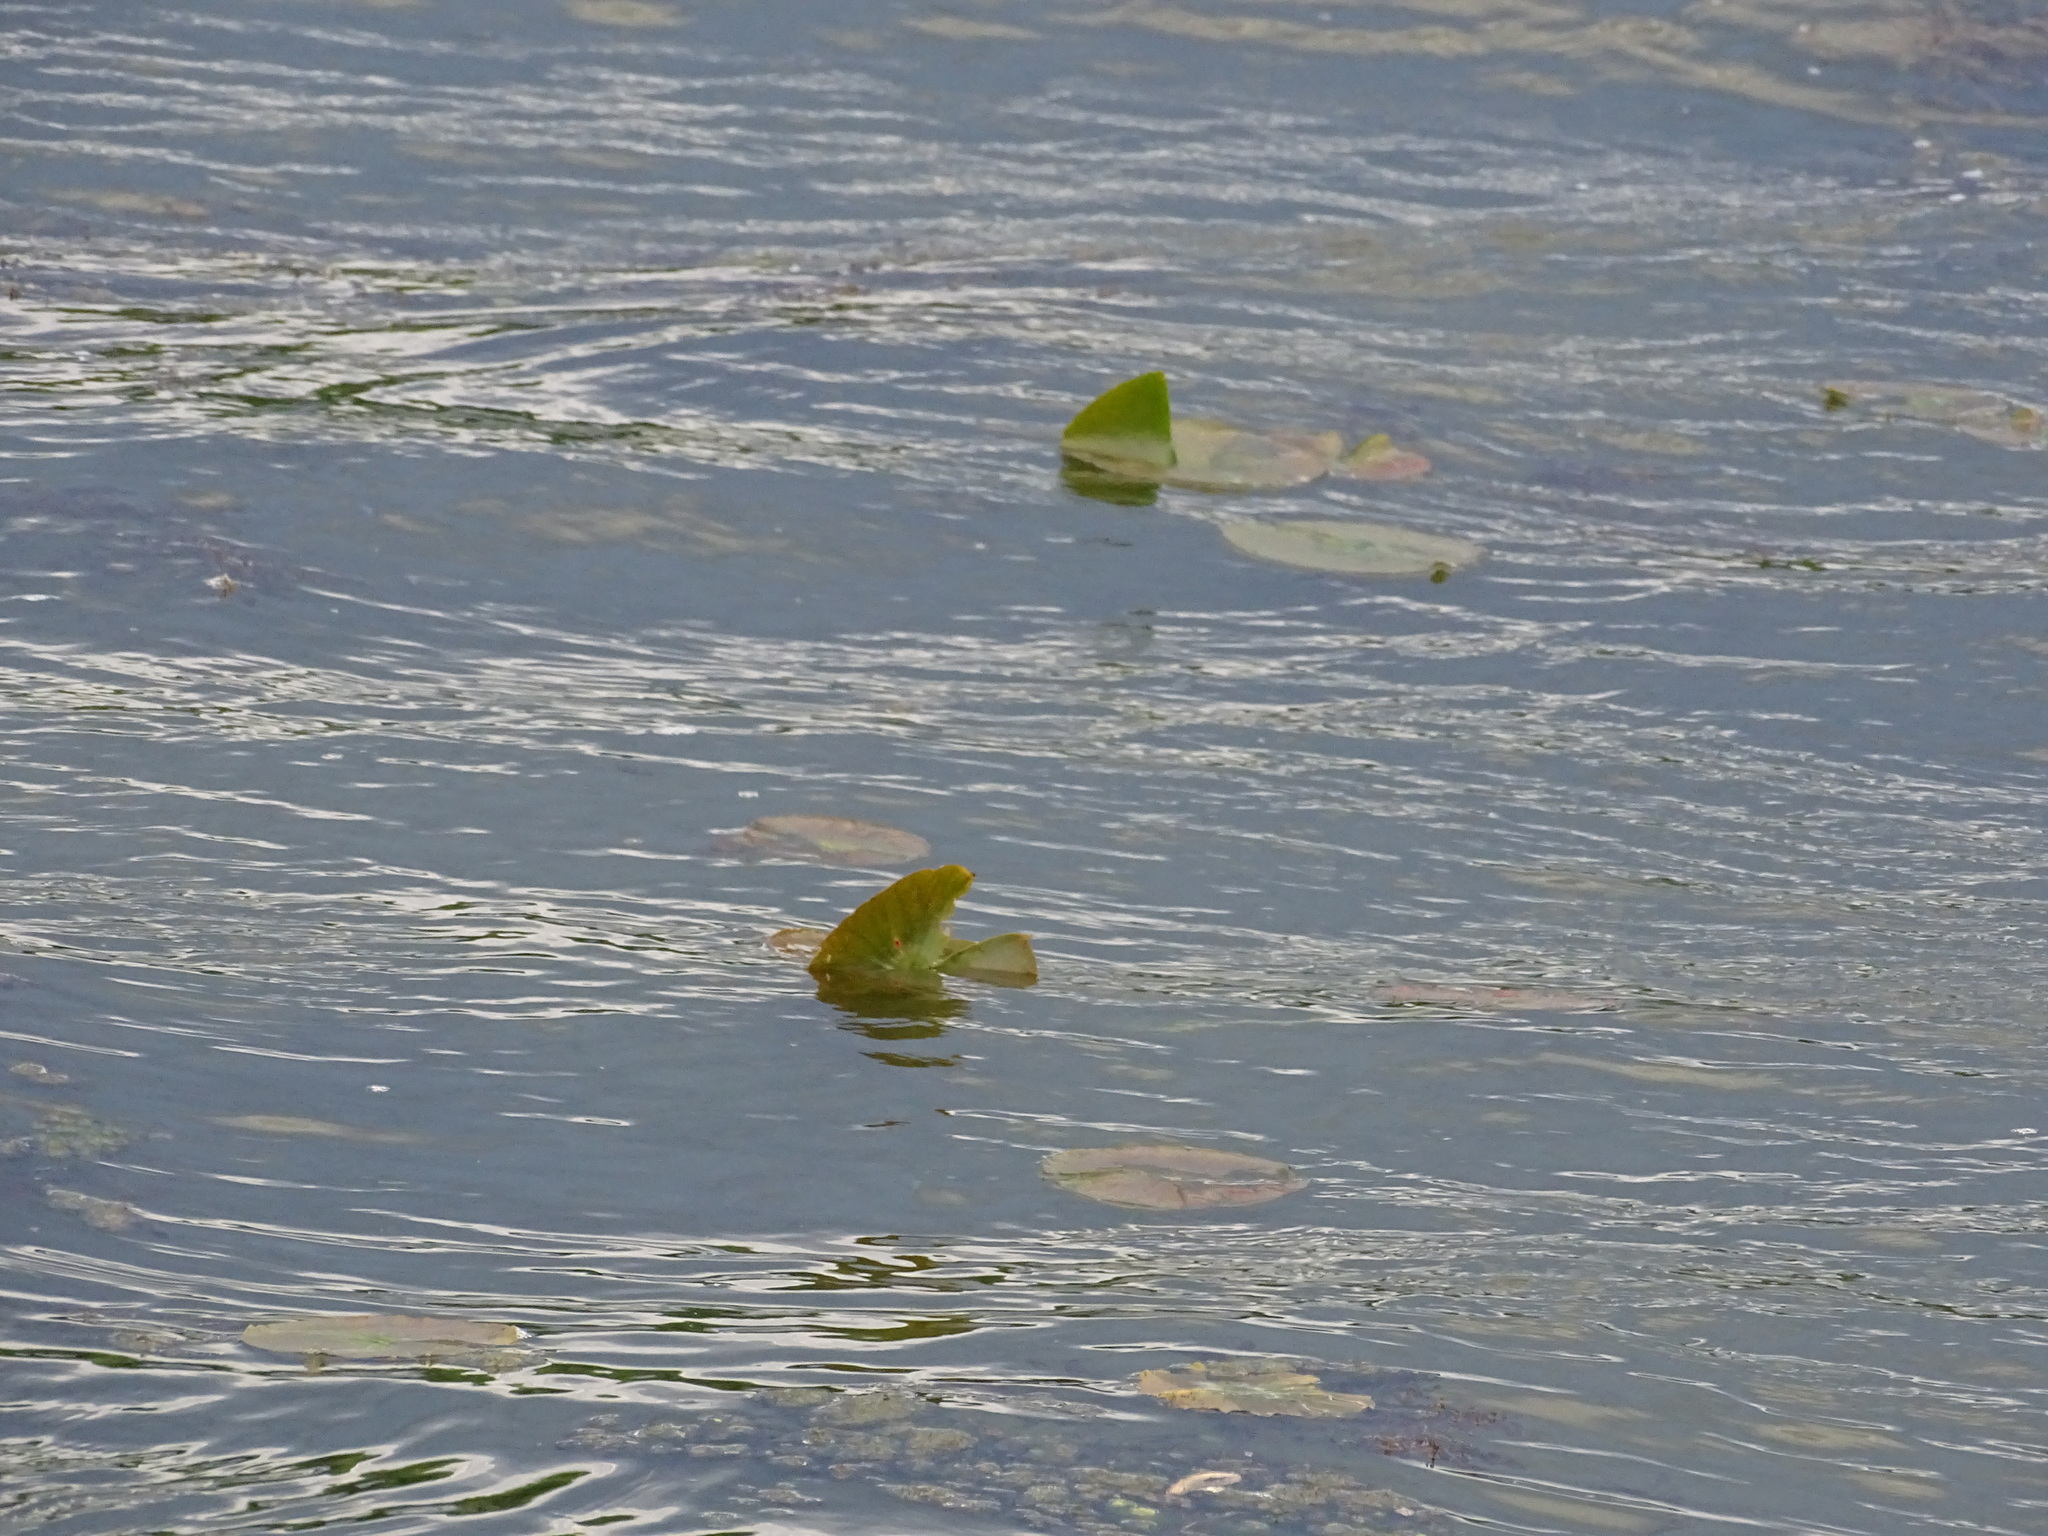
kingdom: Plantae
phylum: Tracheophyta
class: Magnoliopsida
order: Nymphaeales
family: Nymphaeaceae
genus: Nymphaea
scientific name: Nymphaea odorata
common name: Fragrant water-lily
